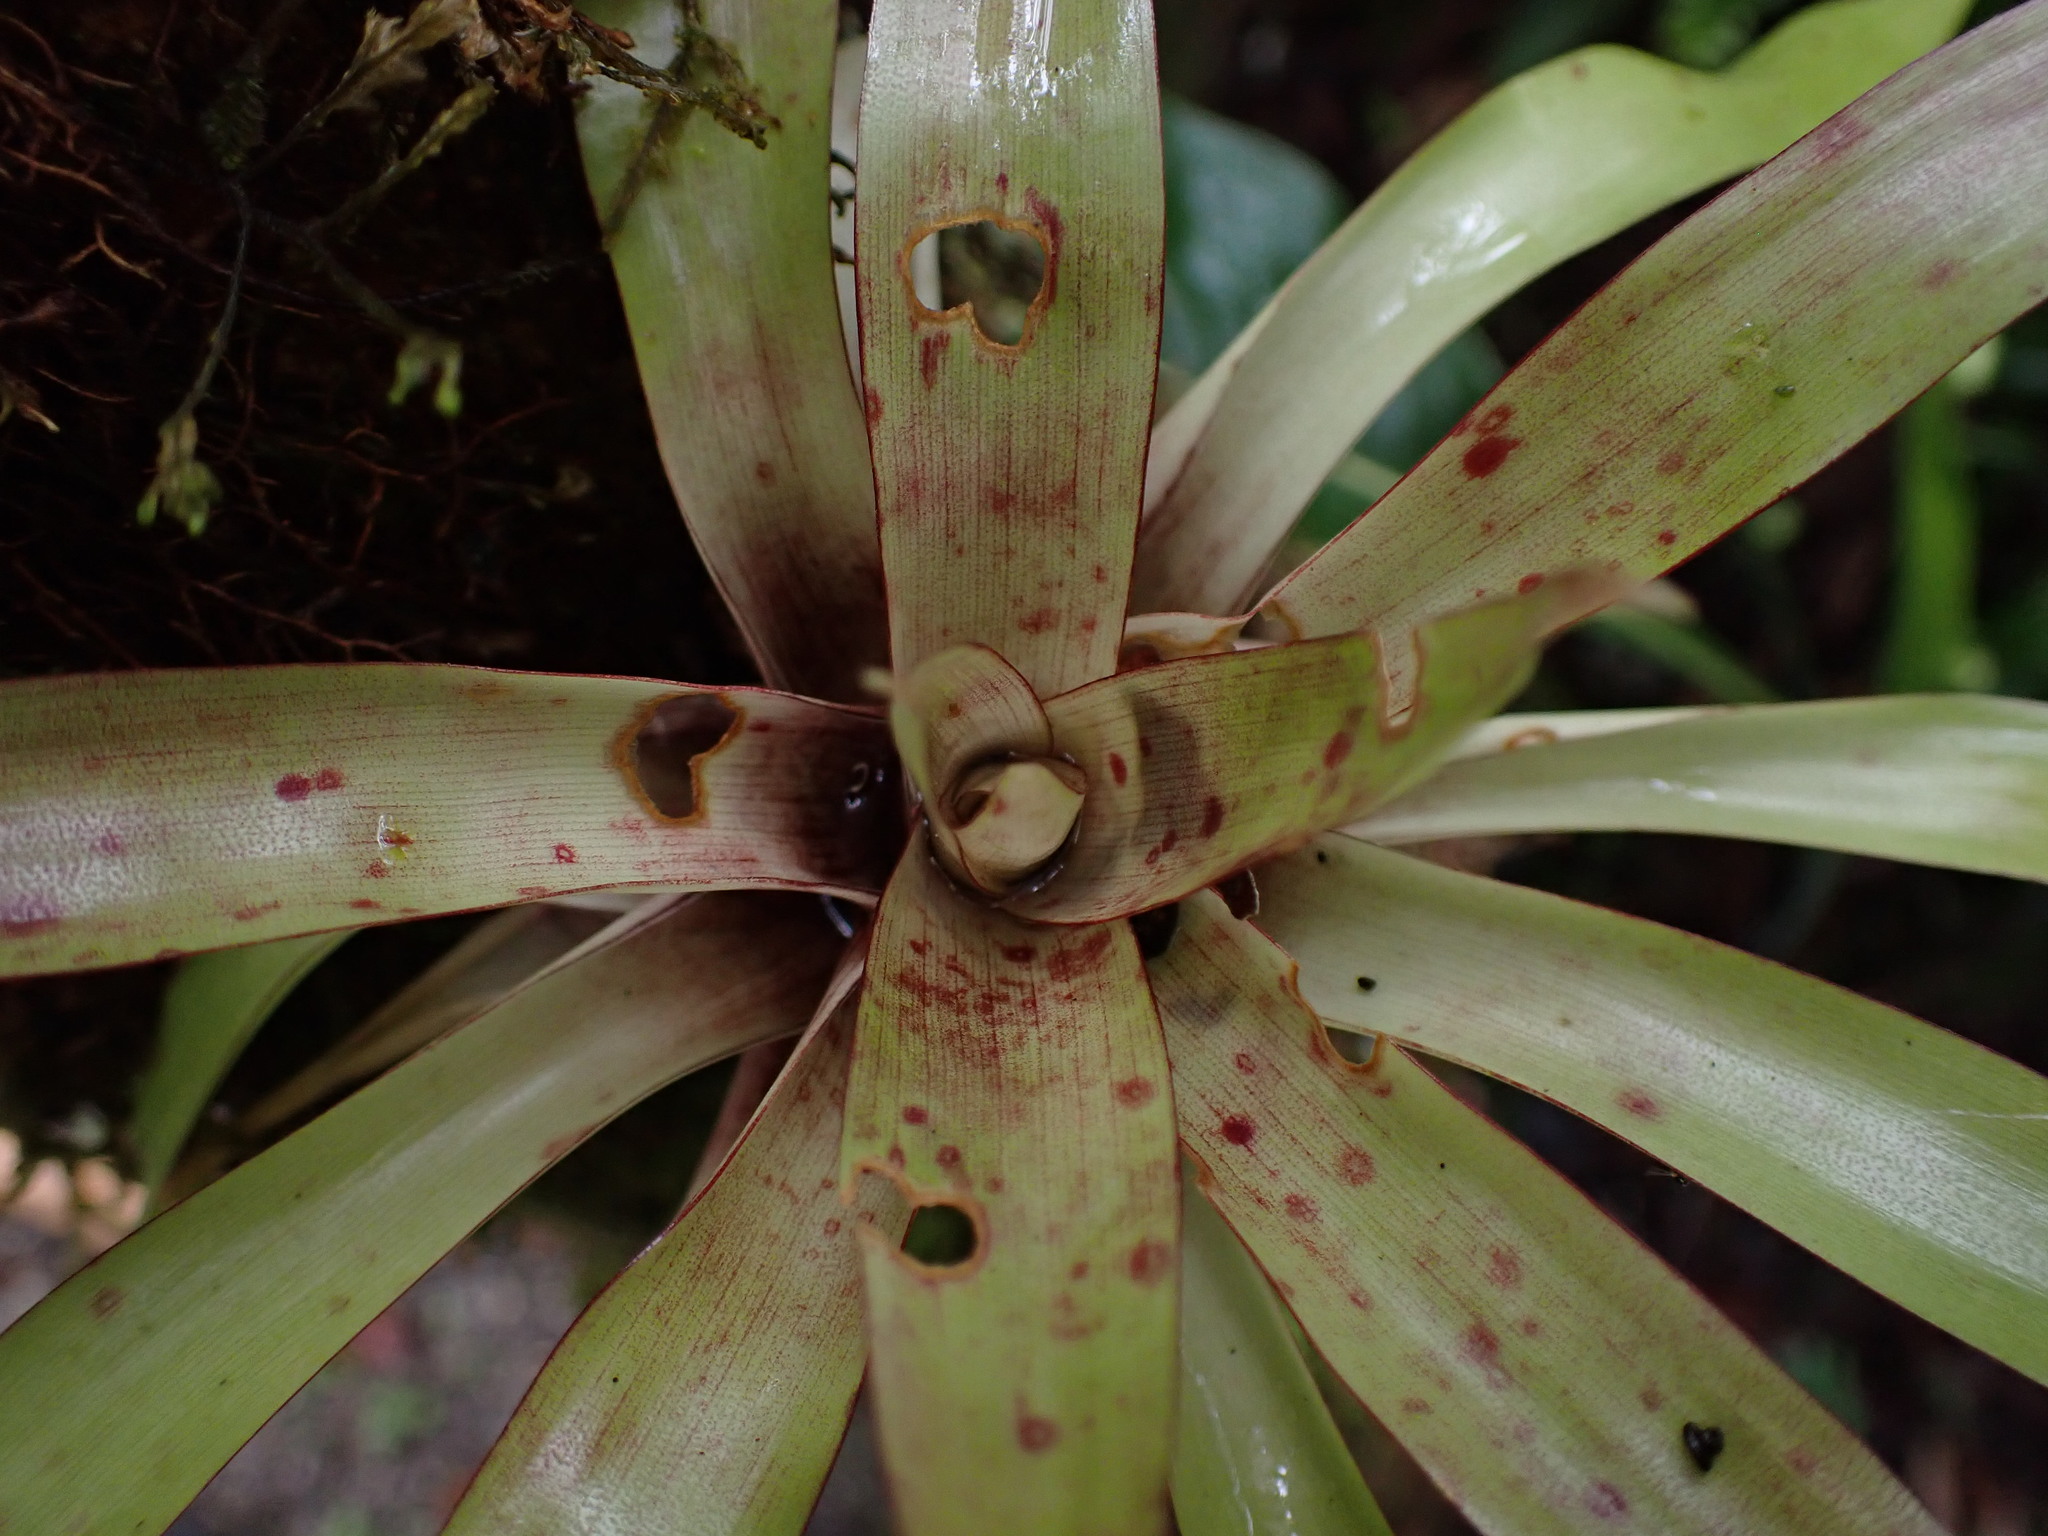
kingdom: Plantae
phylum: Tracheophyta
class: Liliopsida
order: Poales
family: Bromeliaceae
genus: Tillandsia
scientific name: Tillandsia biflora
